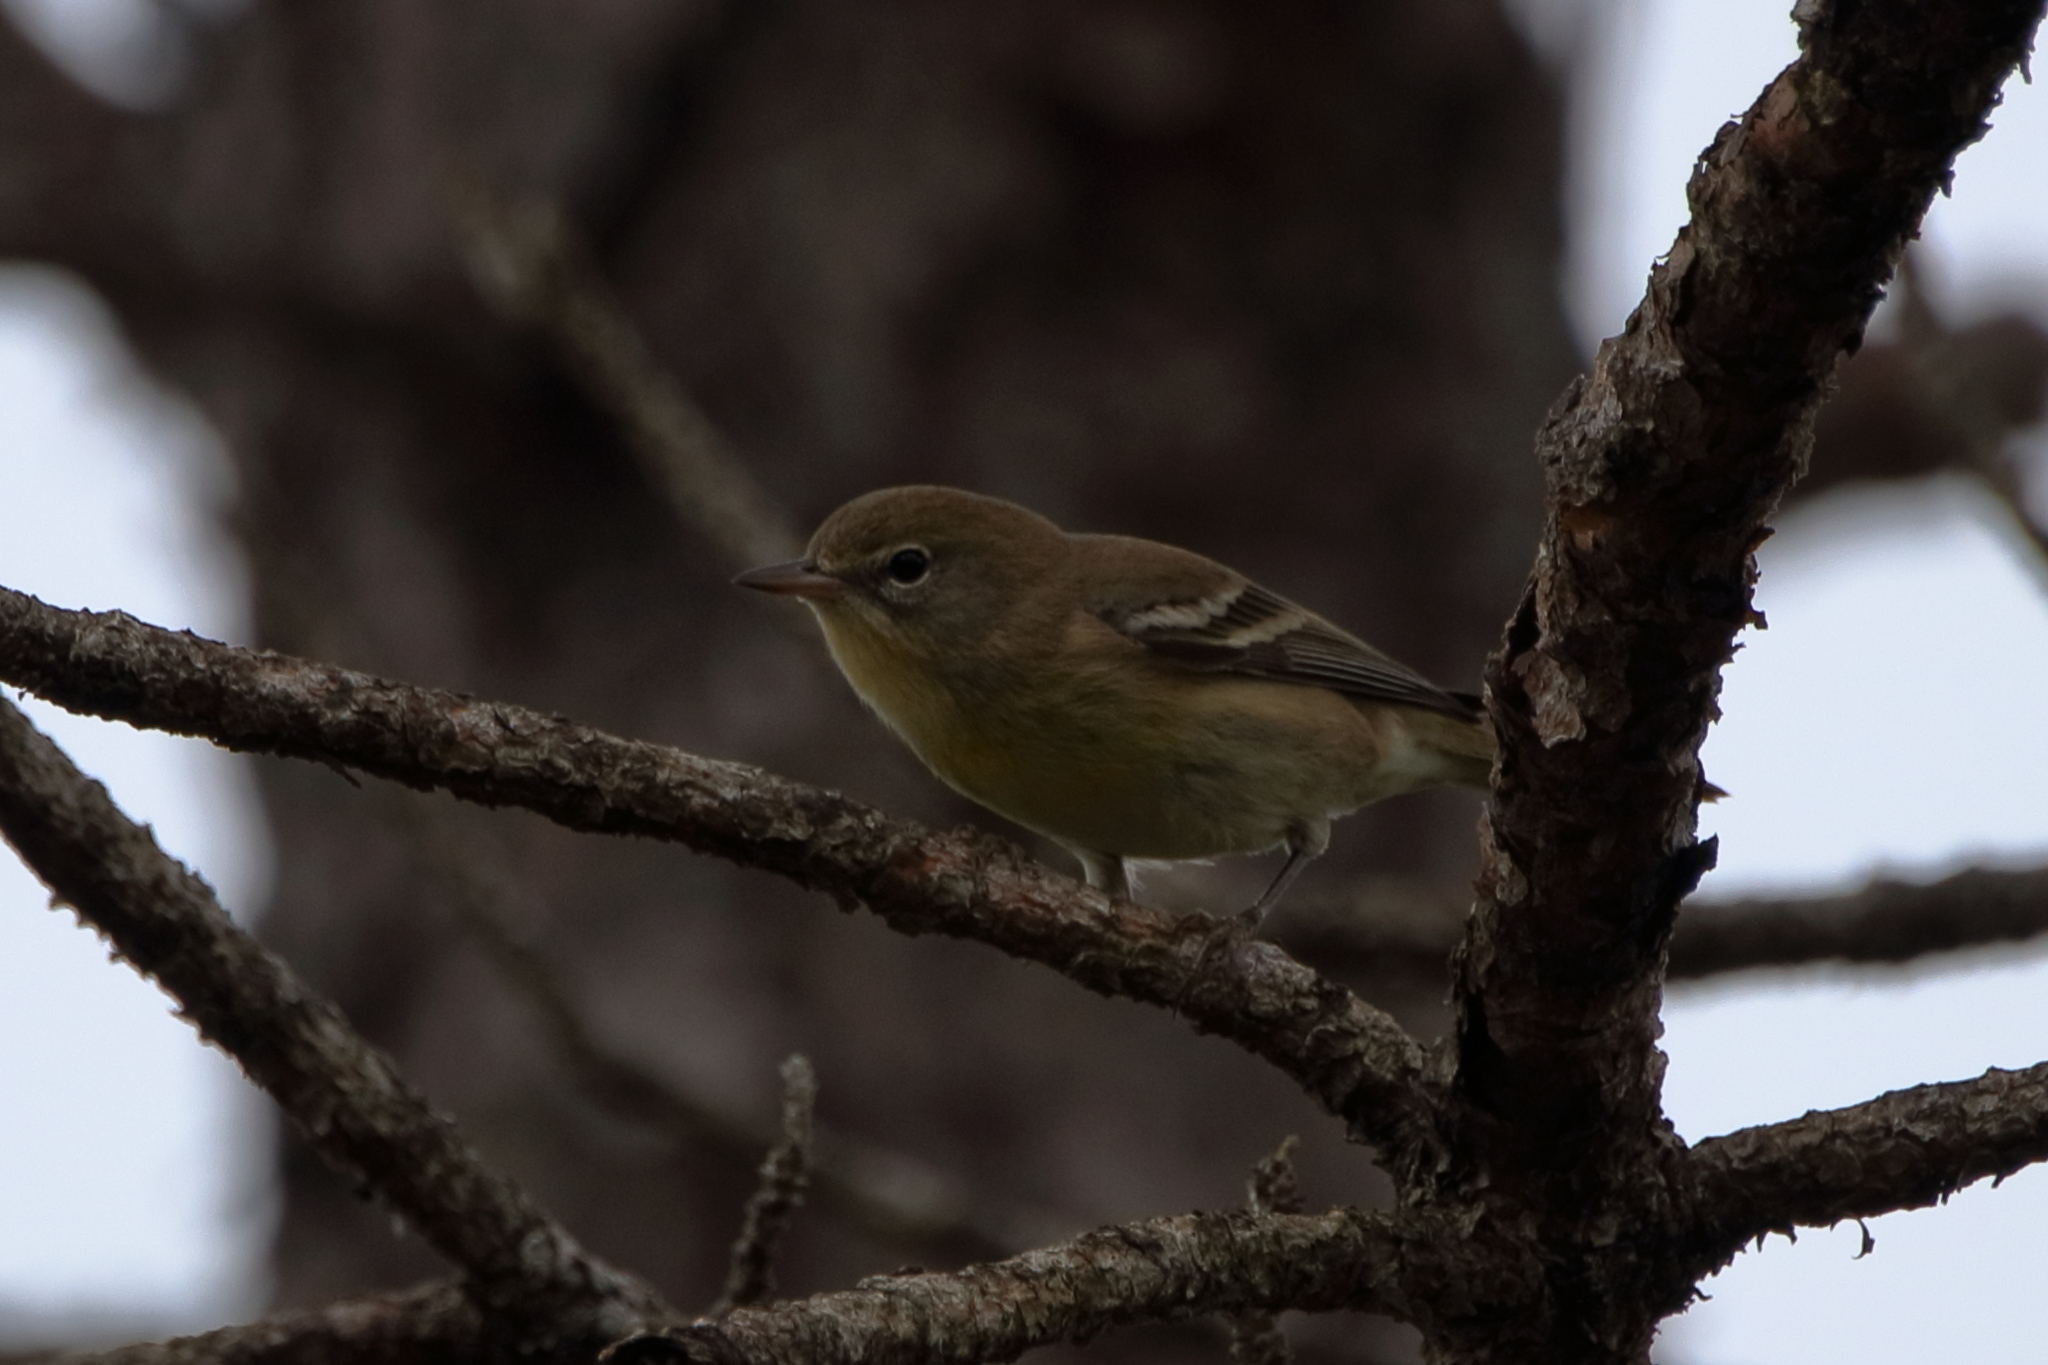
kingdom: Animalia
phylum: Chordata
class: Aves
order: Passeriformes
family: Parulidae
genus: Setophaga
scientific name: Setophaga pinus
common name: Pine warbler
